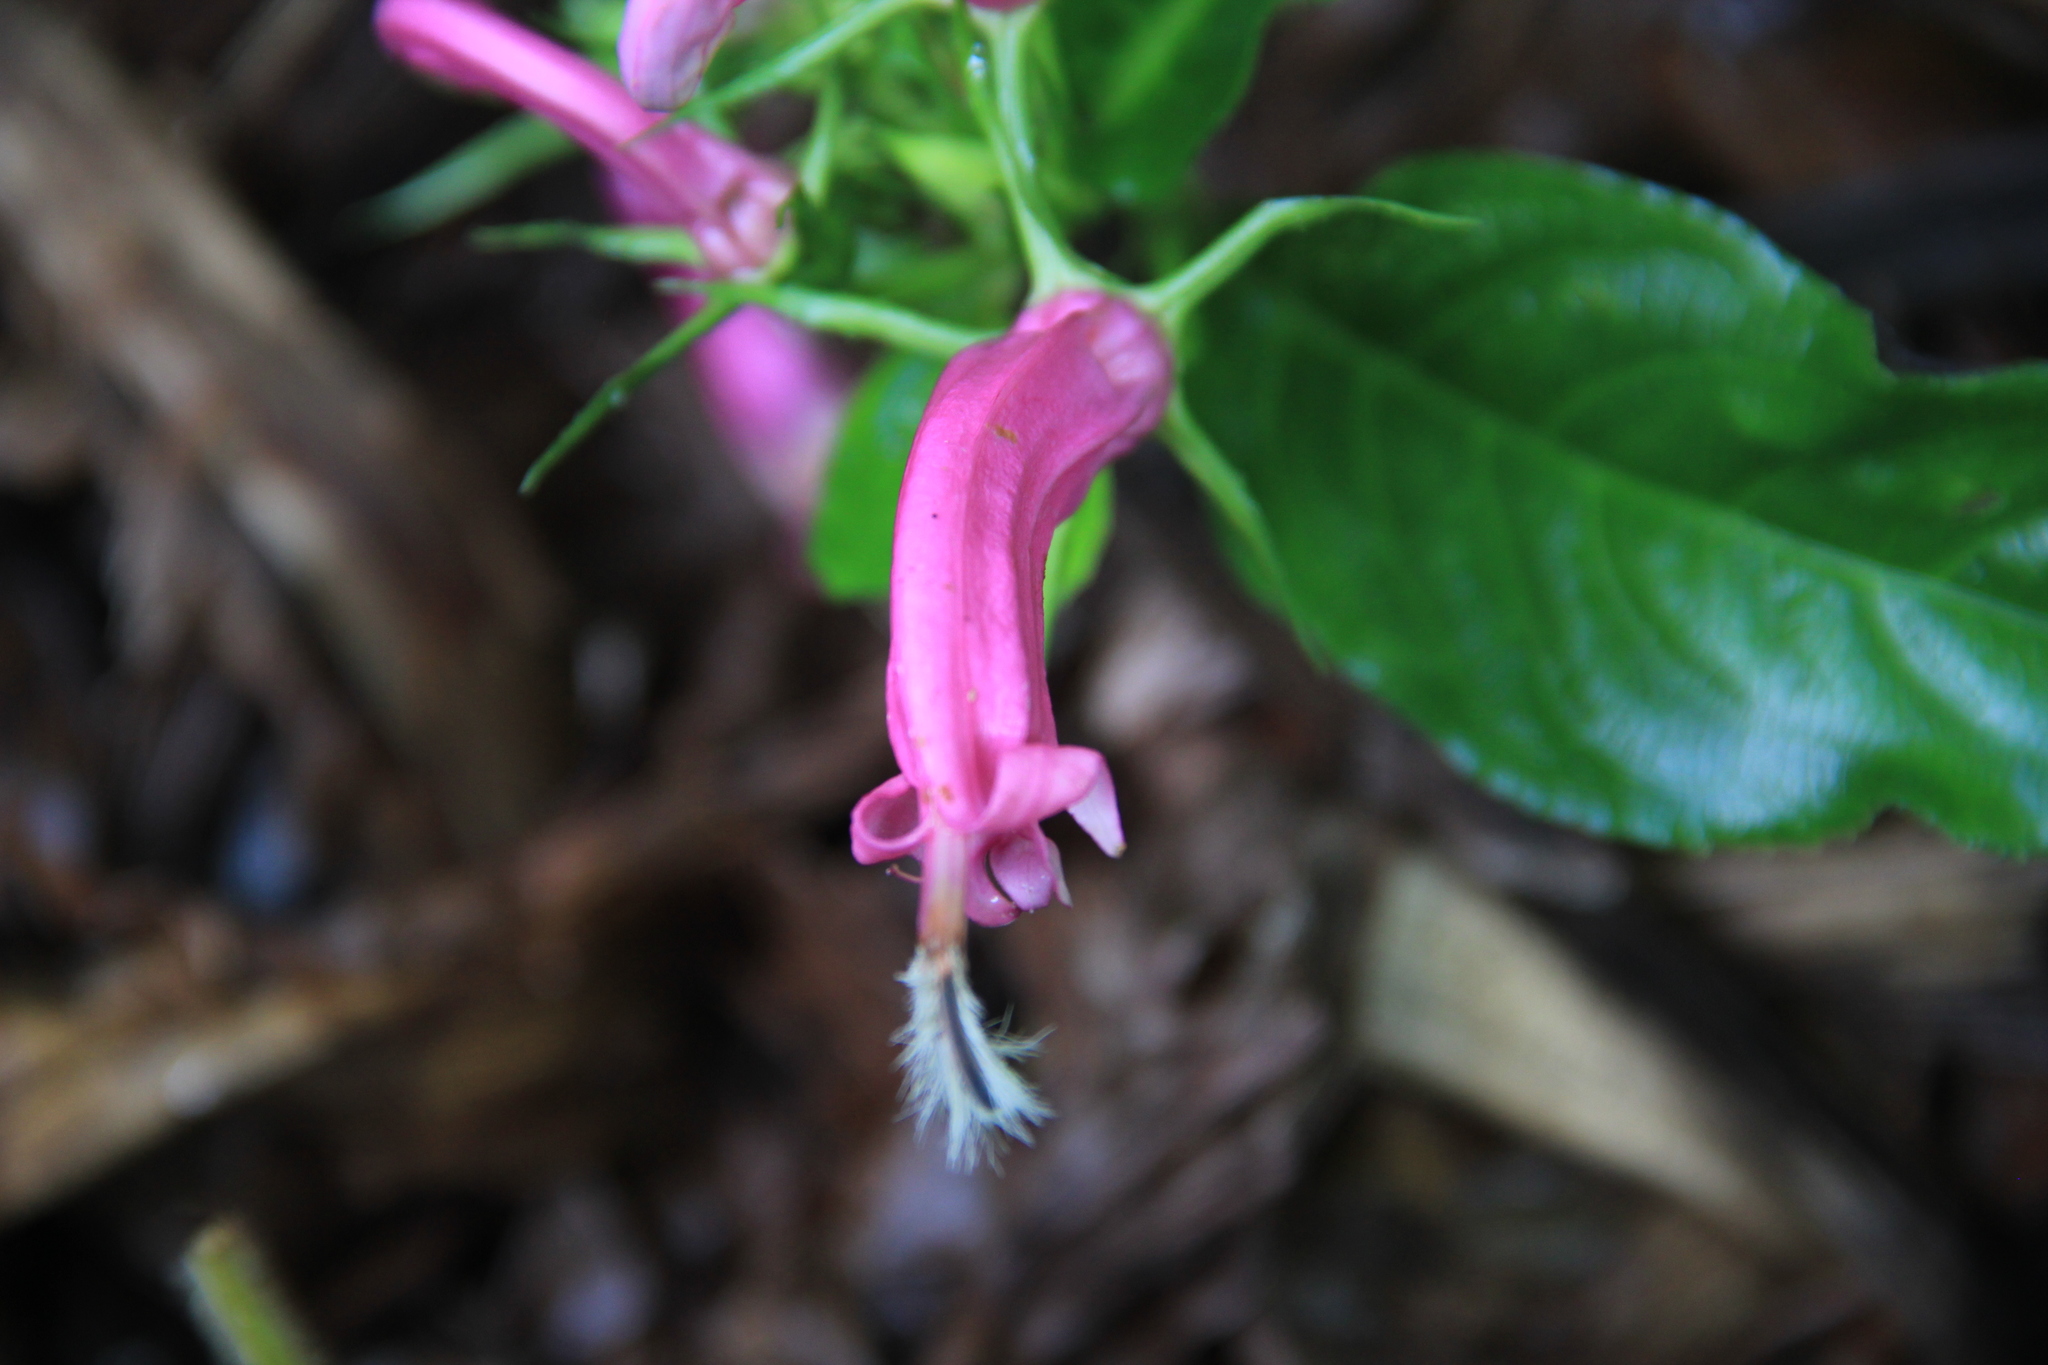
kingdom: Plantae
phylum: Tracheophyta
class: Magnoliopsida
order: Asterales
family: Campanulaceae
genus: Centropogon
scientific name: Centropogon cornutus
